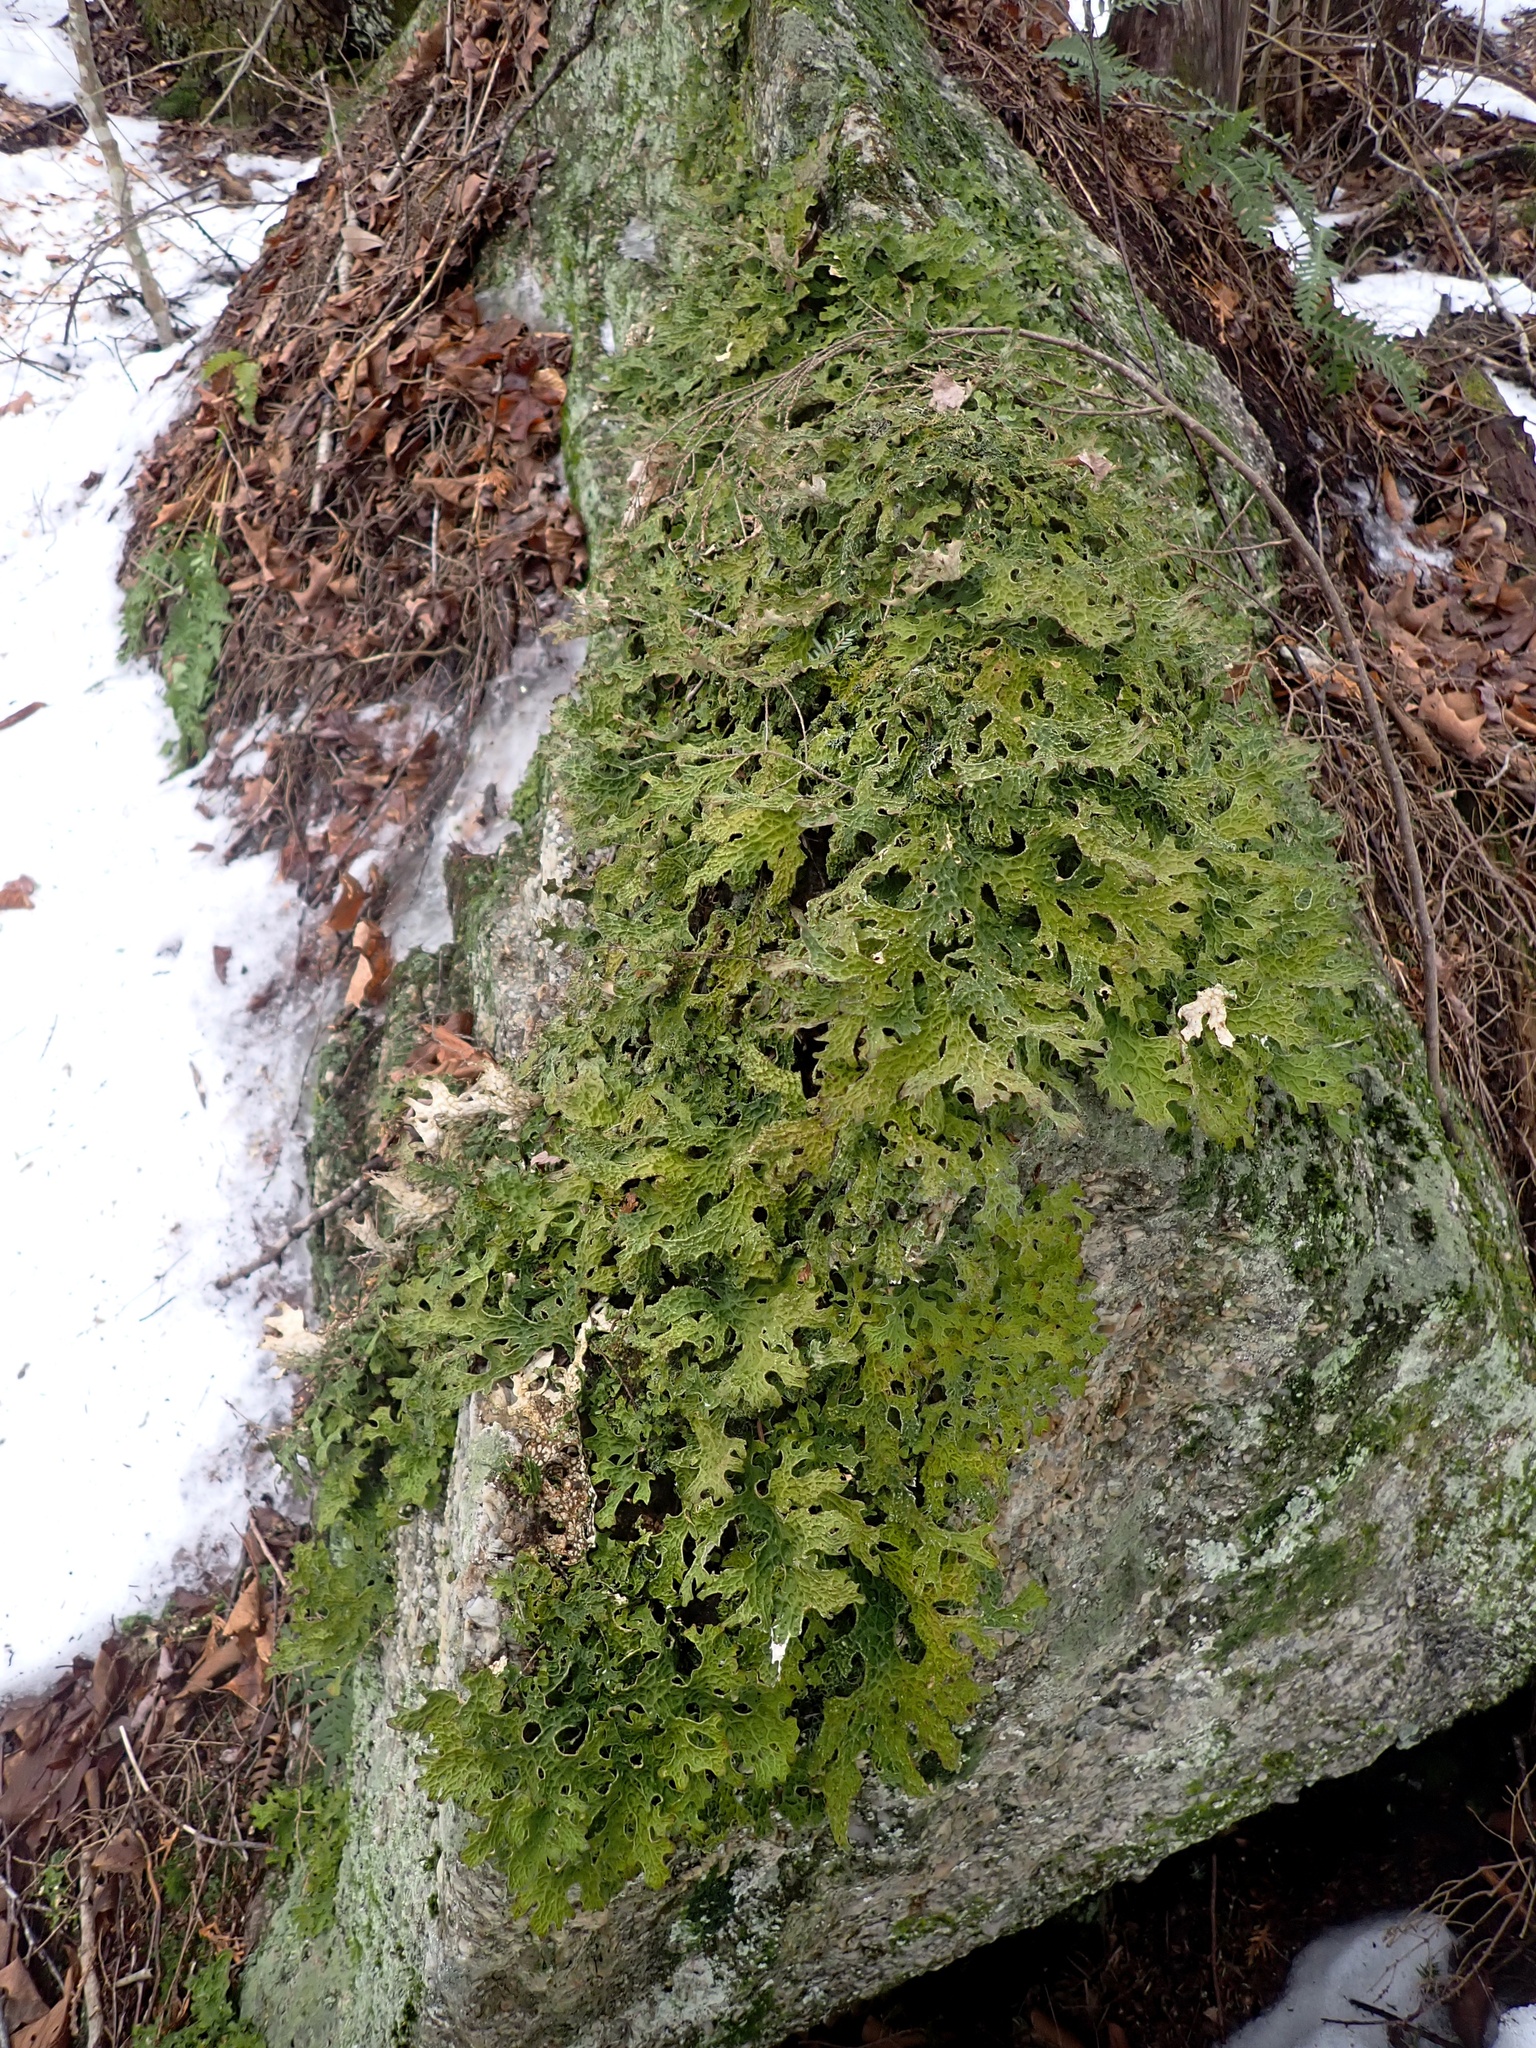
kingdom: Fungi
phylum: Ascomycota
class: Lecanoromycetes
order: Peltigerales
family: Lobariaceae
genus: Lobaria
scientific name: Lobaria pulmonaria
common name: Lungwort
